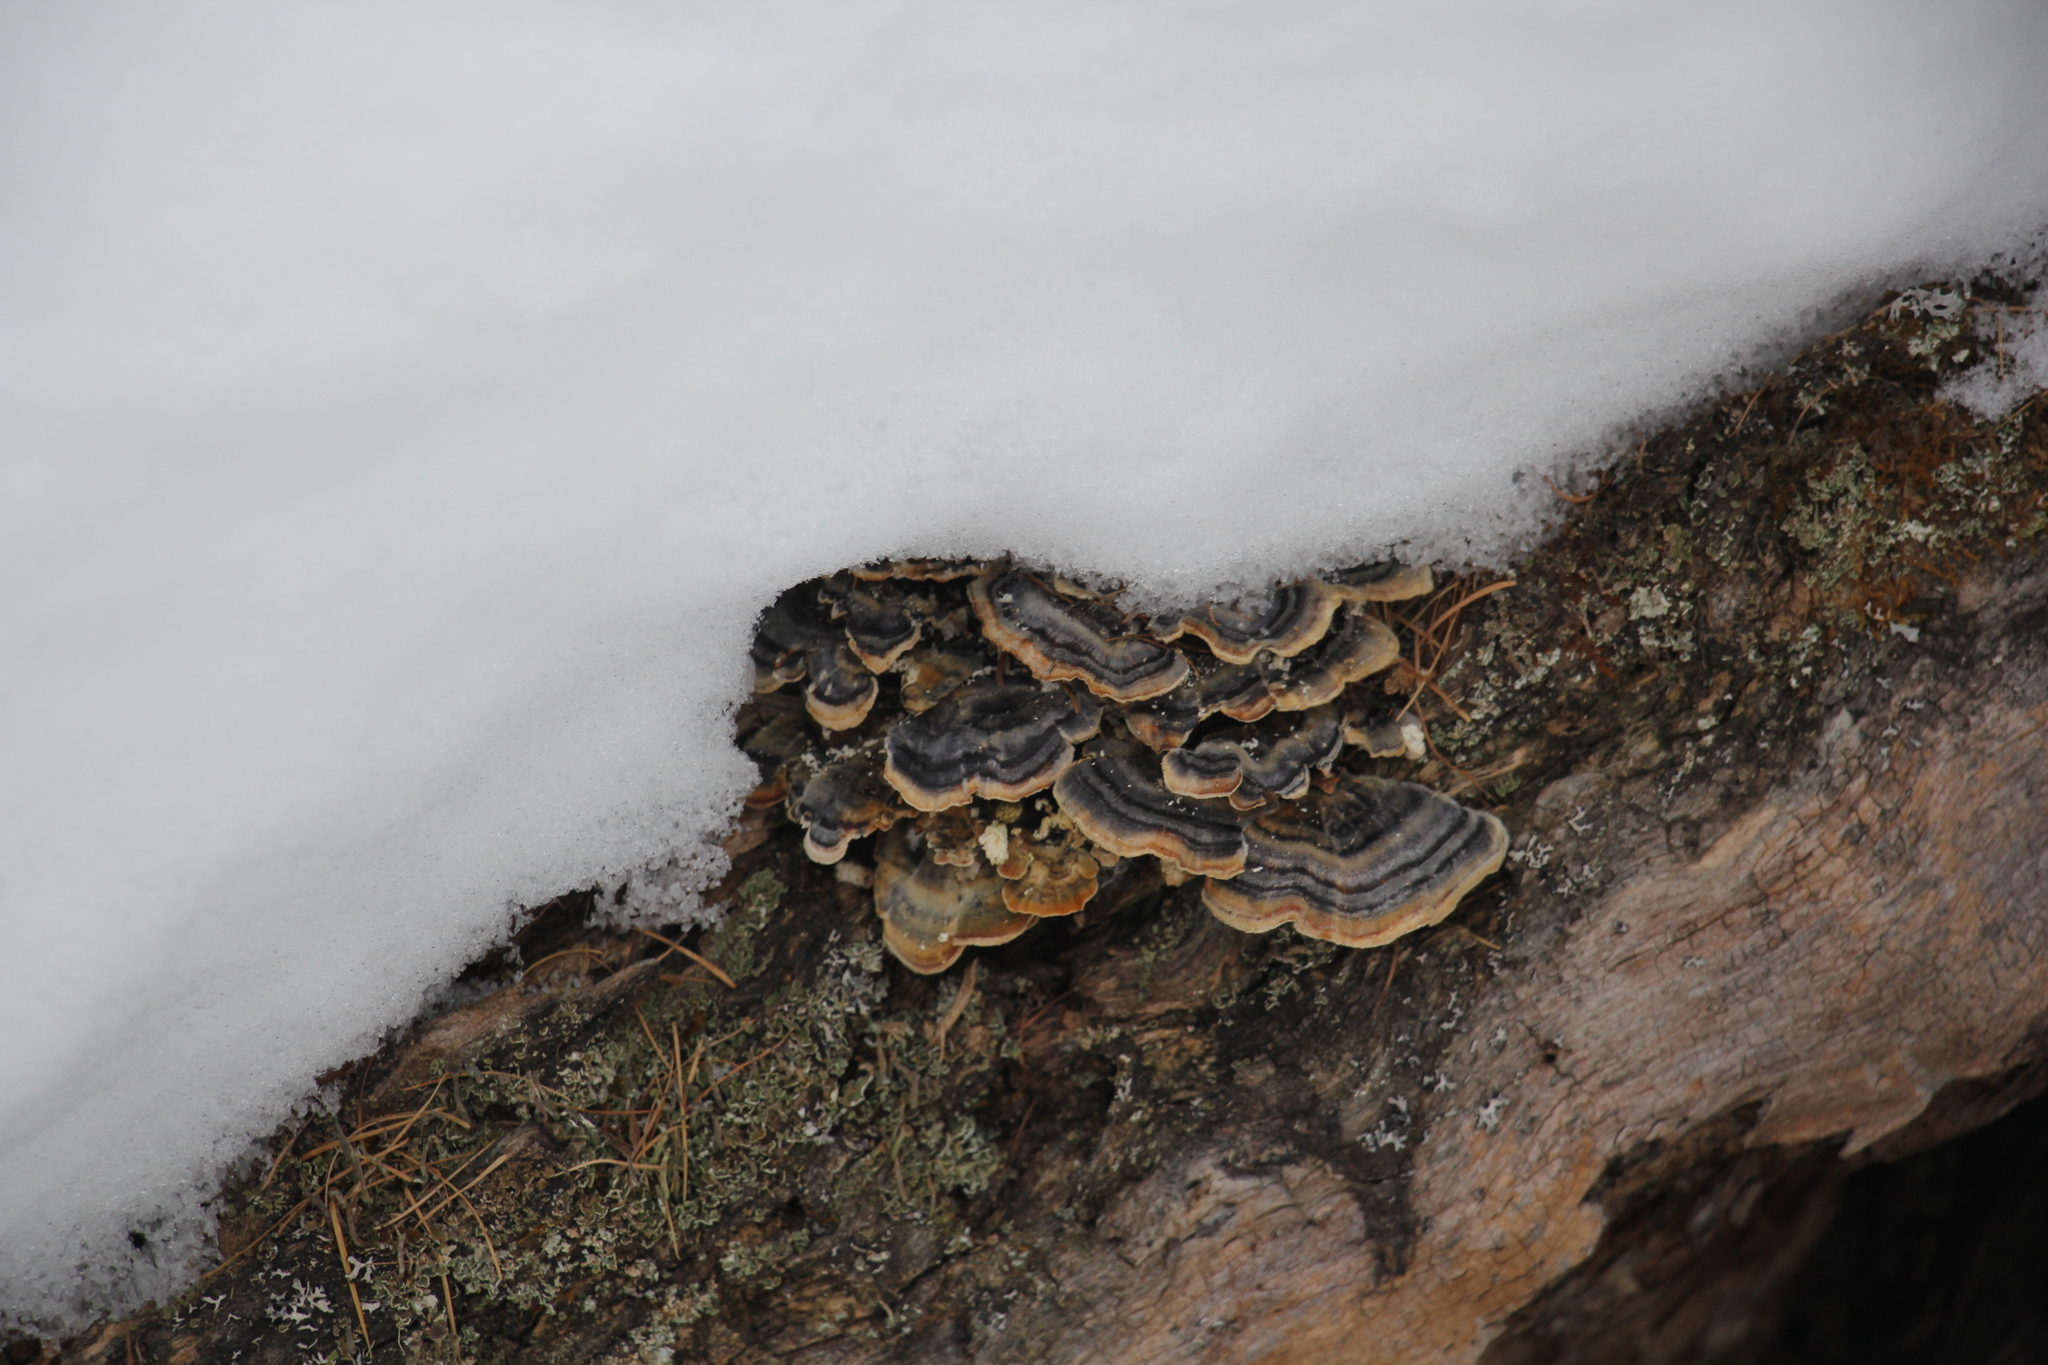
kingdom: Fungi
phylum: Basidiomycota
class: Agaricomycetes
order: Polyporales
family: Polyporaceae
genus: Trametes
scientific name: Trametes versicolor
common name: Turkeytail
